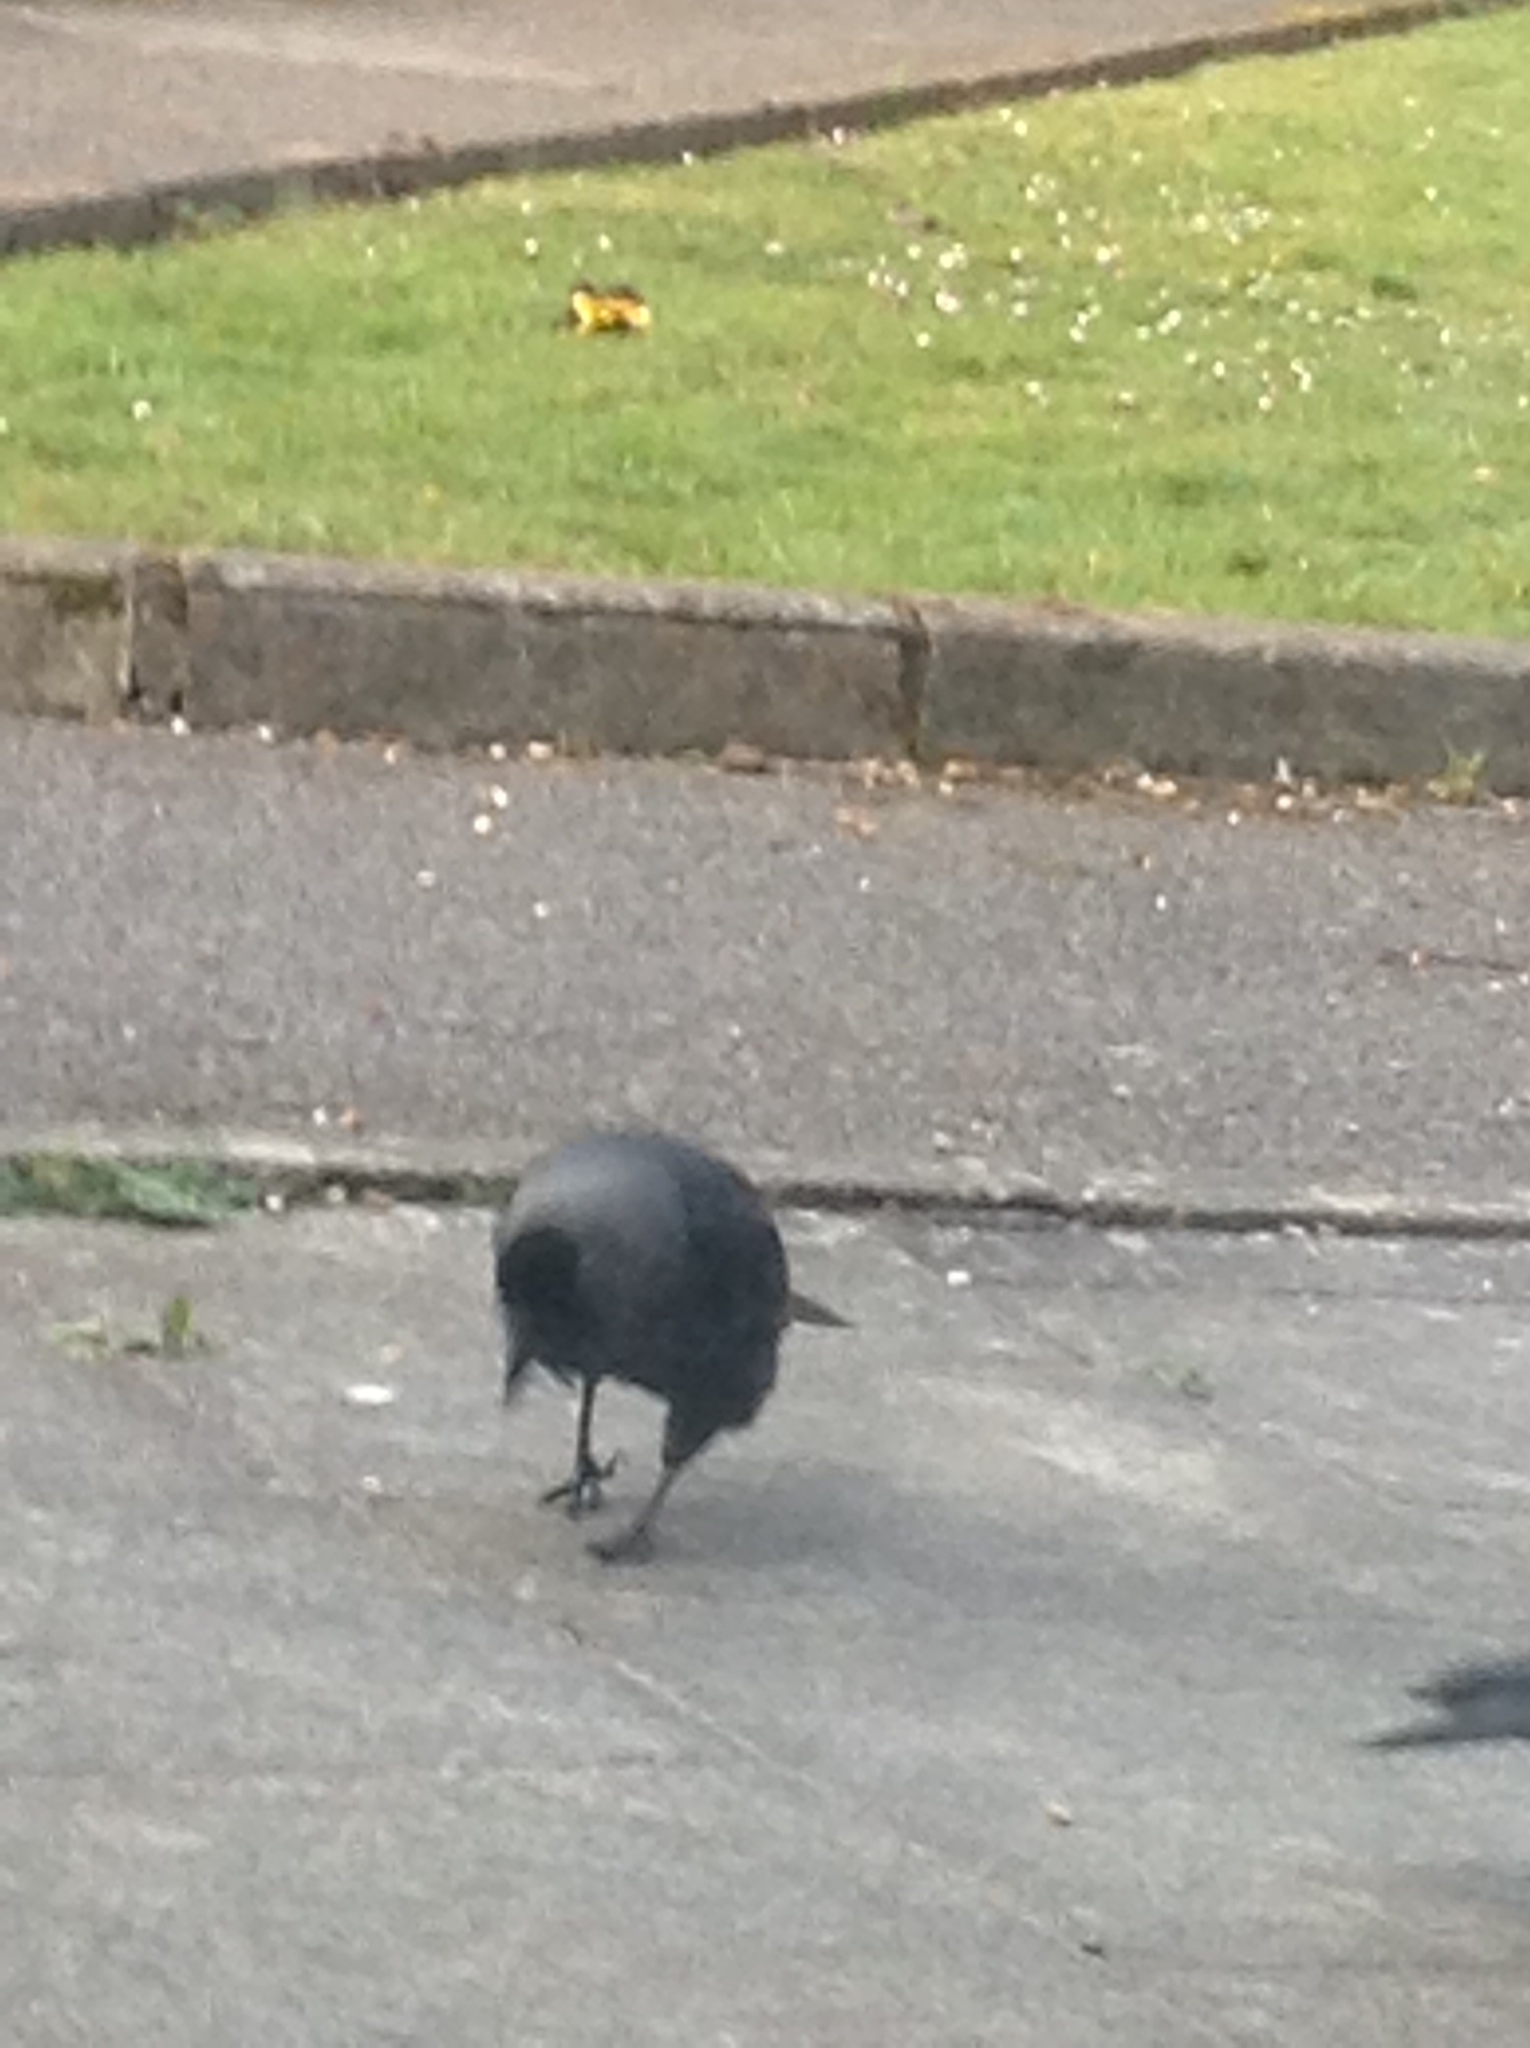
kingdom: Animalia
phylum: Chordata
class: Aves
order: Passeriformes
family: Corvidae
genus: Coloeus
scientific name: Coloeus monedula
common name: Western jackdaw
